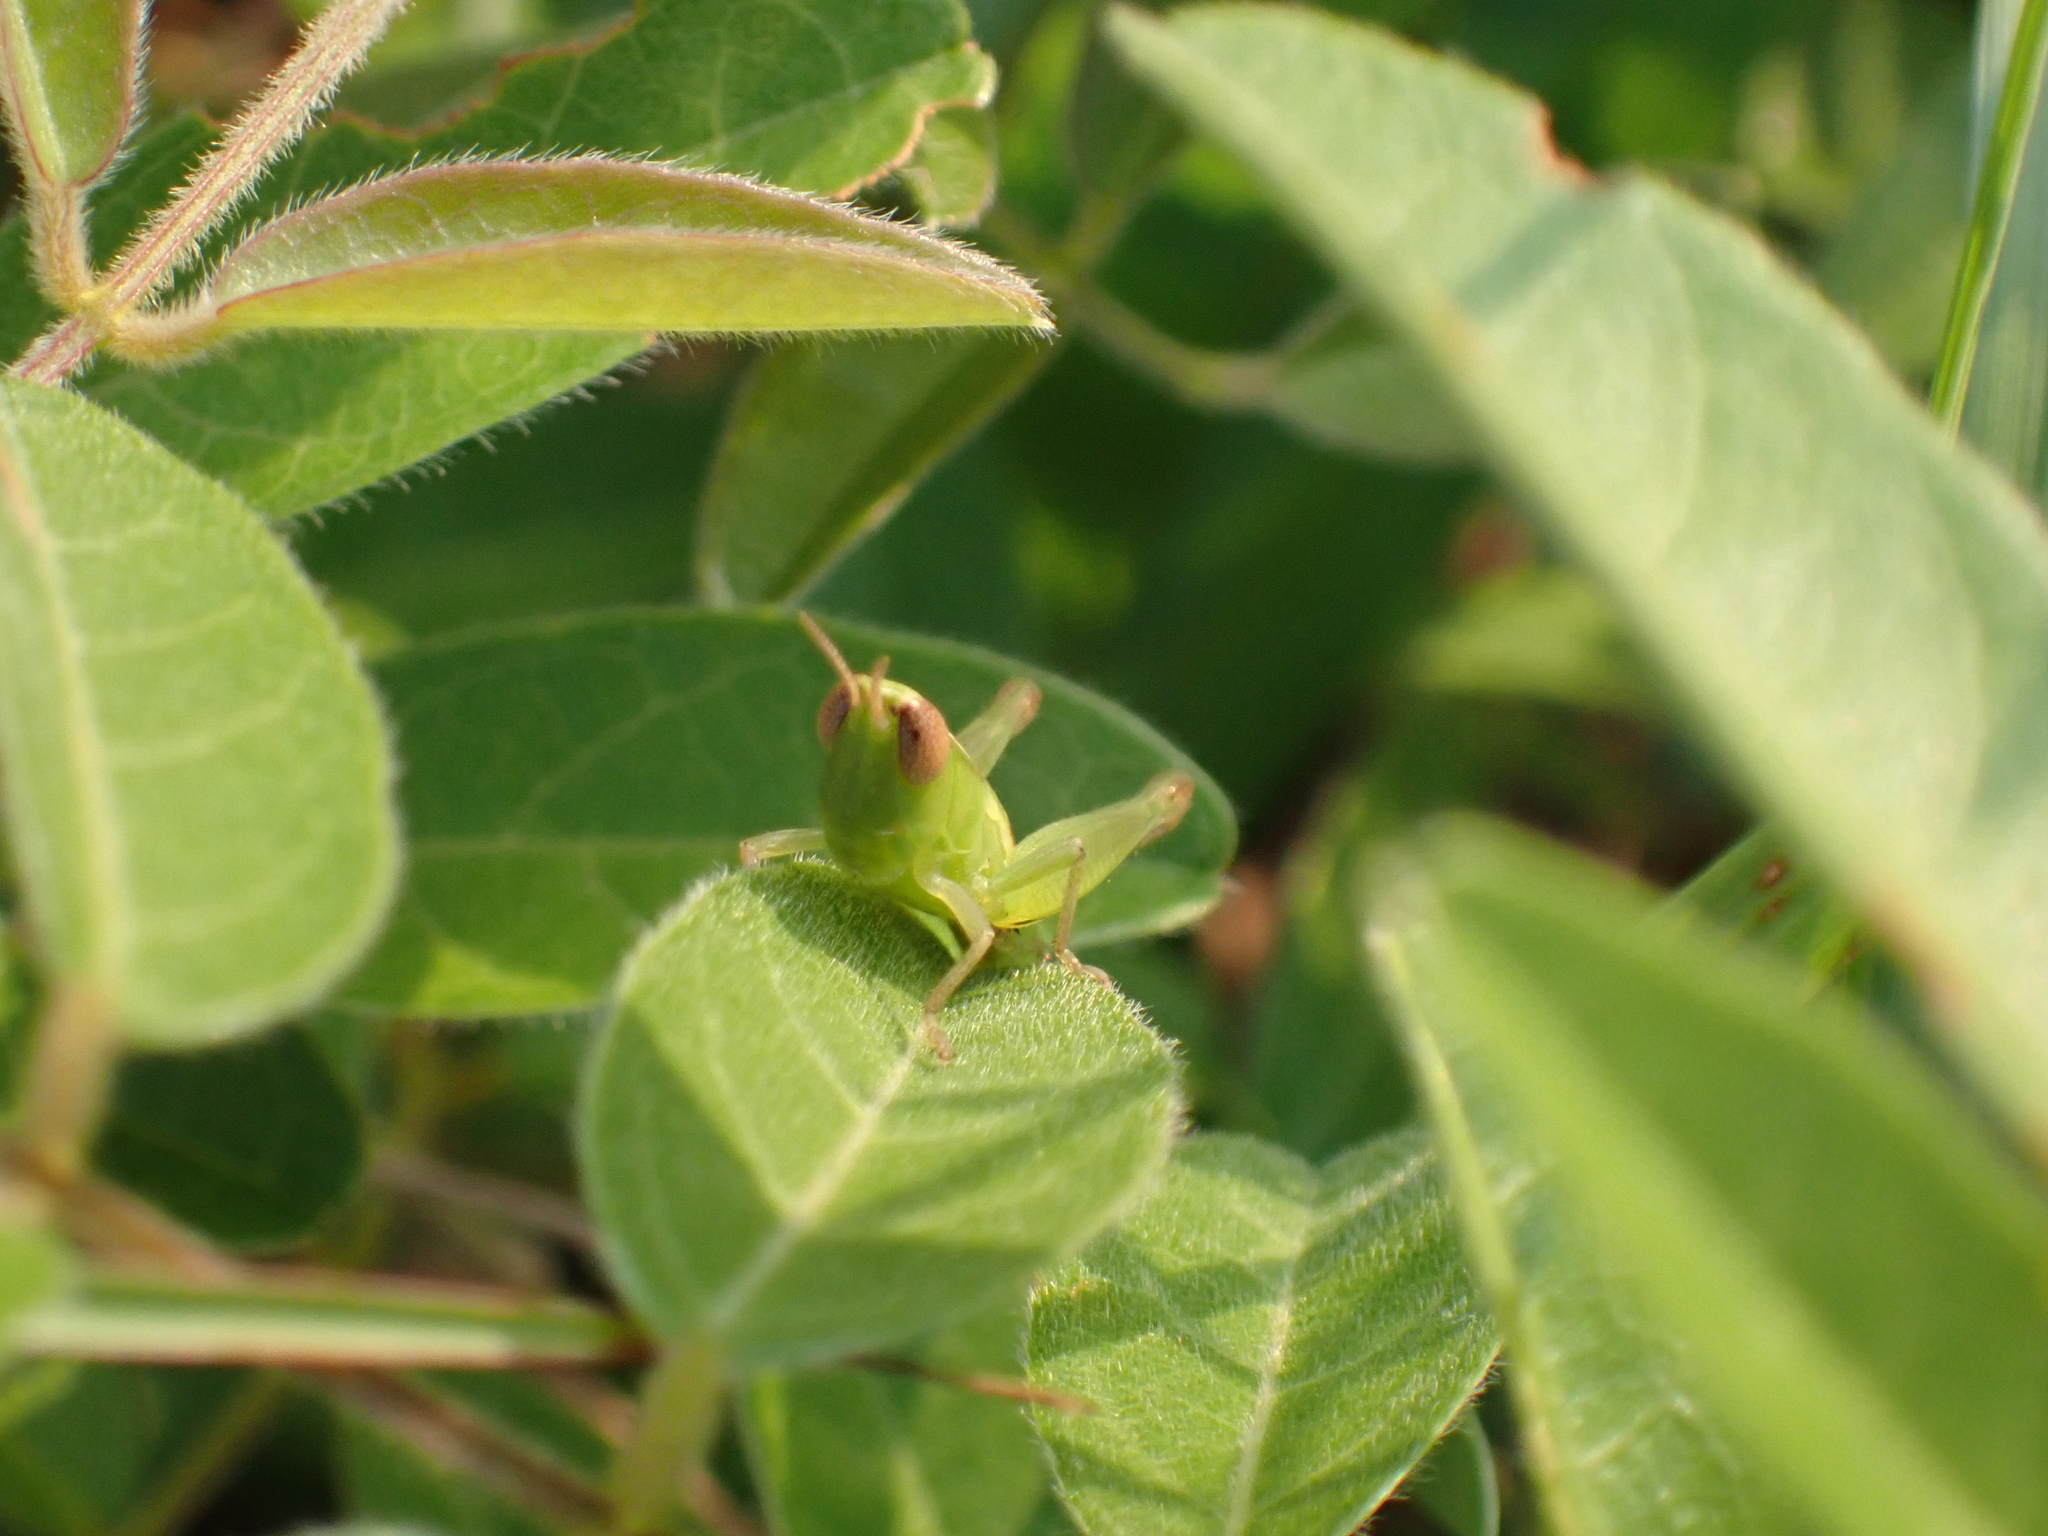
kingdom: Animalia
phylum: Arthropoda
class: Insecta
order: Orthoptera
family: Acrididae
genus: Dichromorpha
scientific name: Dichromorpha elegans
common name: Elegant grasshopper
